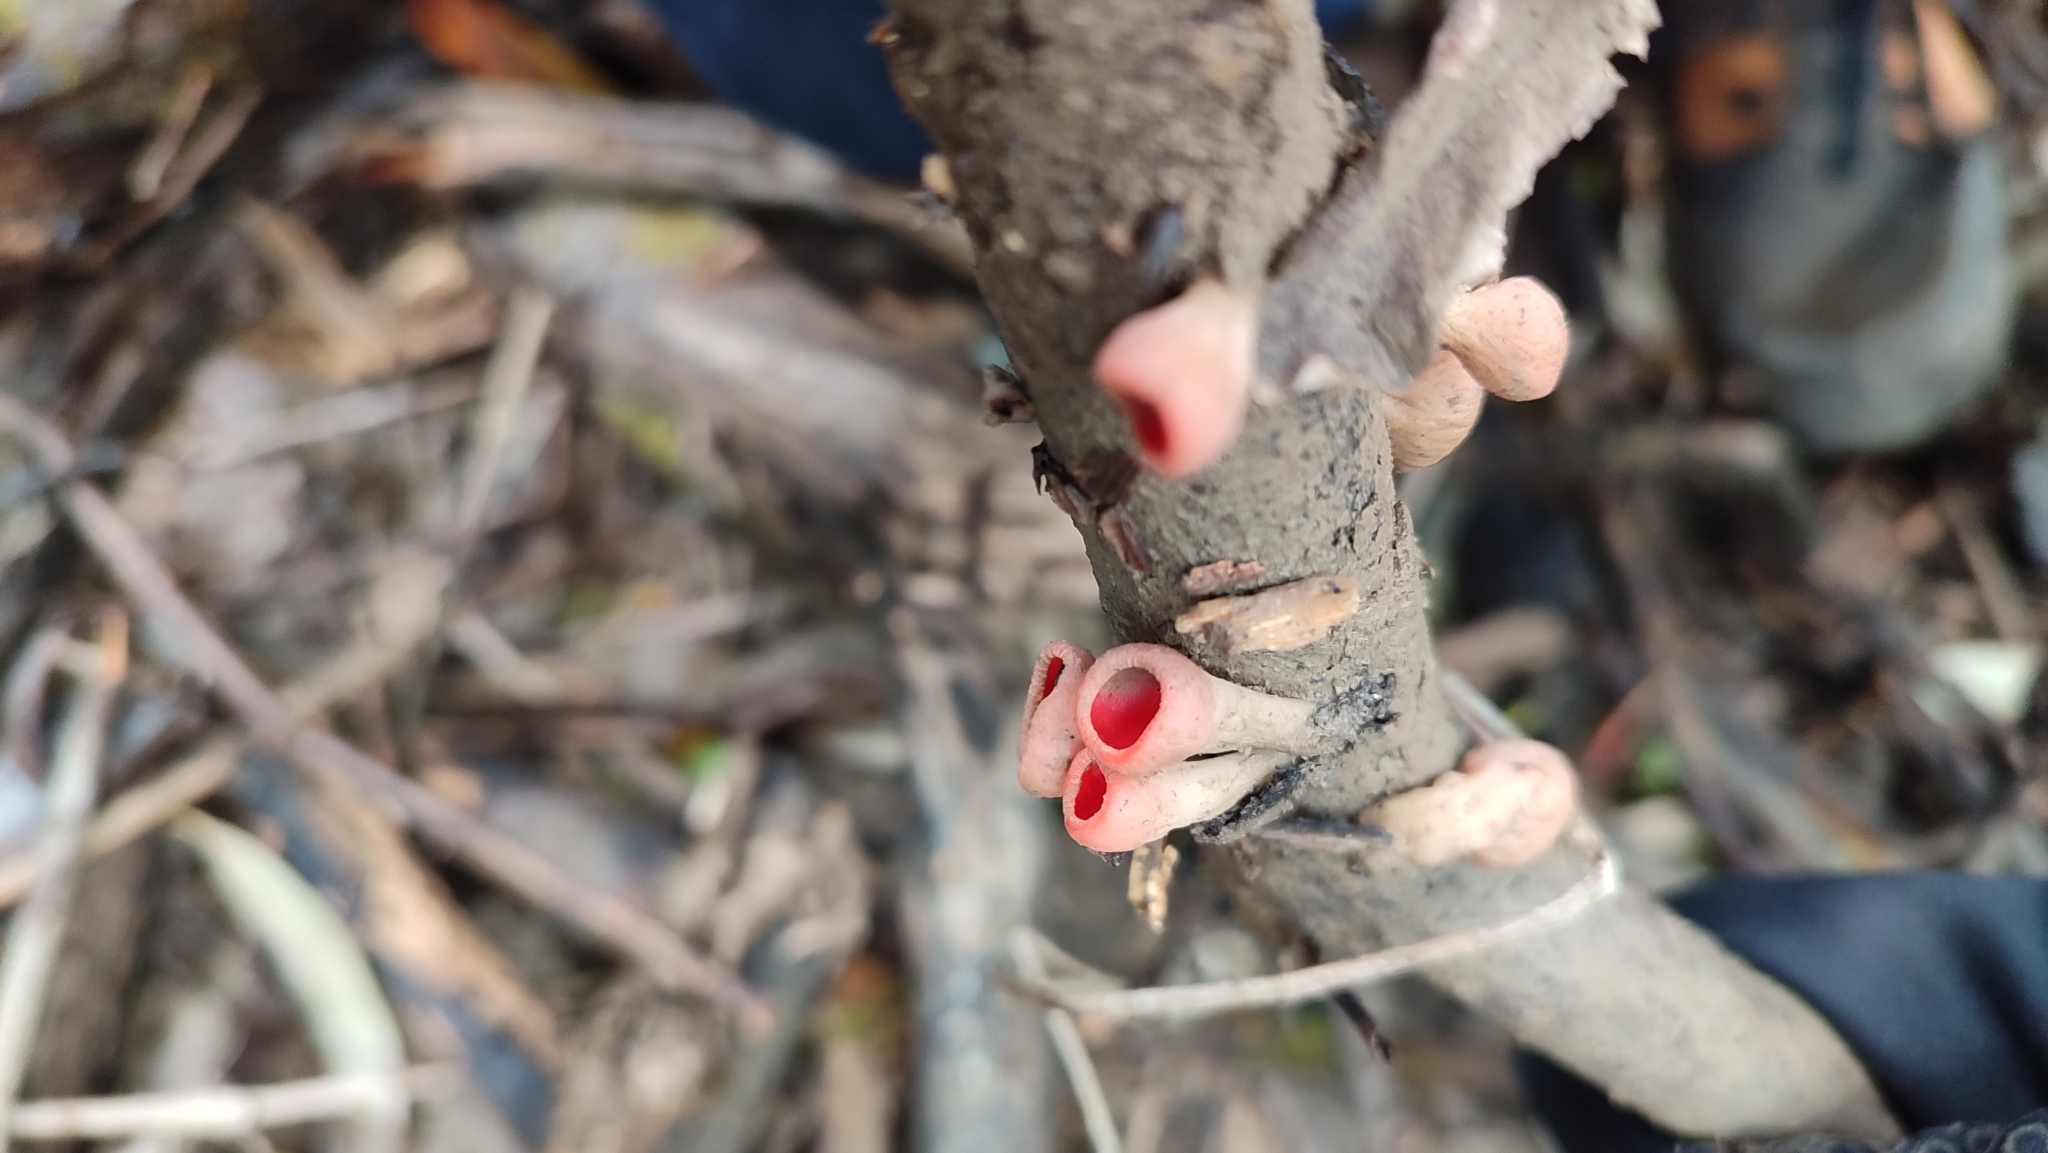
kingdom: Fungi
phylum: Ascomycota
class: Pezizomycetes
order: Pezizales
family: Sarcoscyphaceae
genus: Sarcoscypha
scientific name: Sarcoscypha
